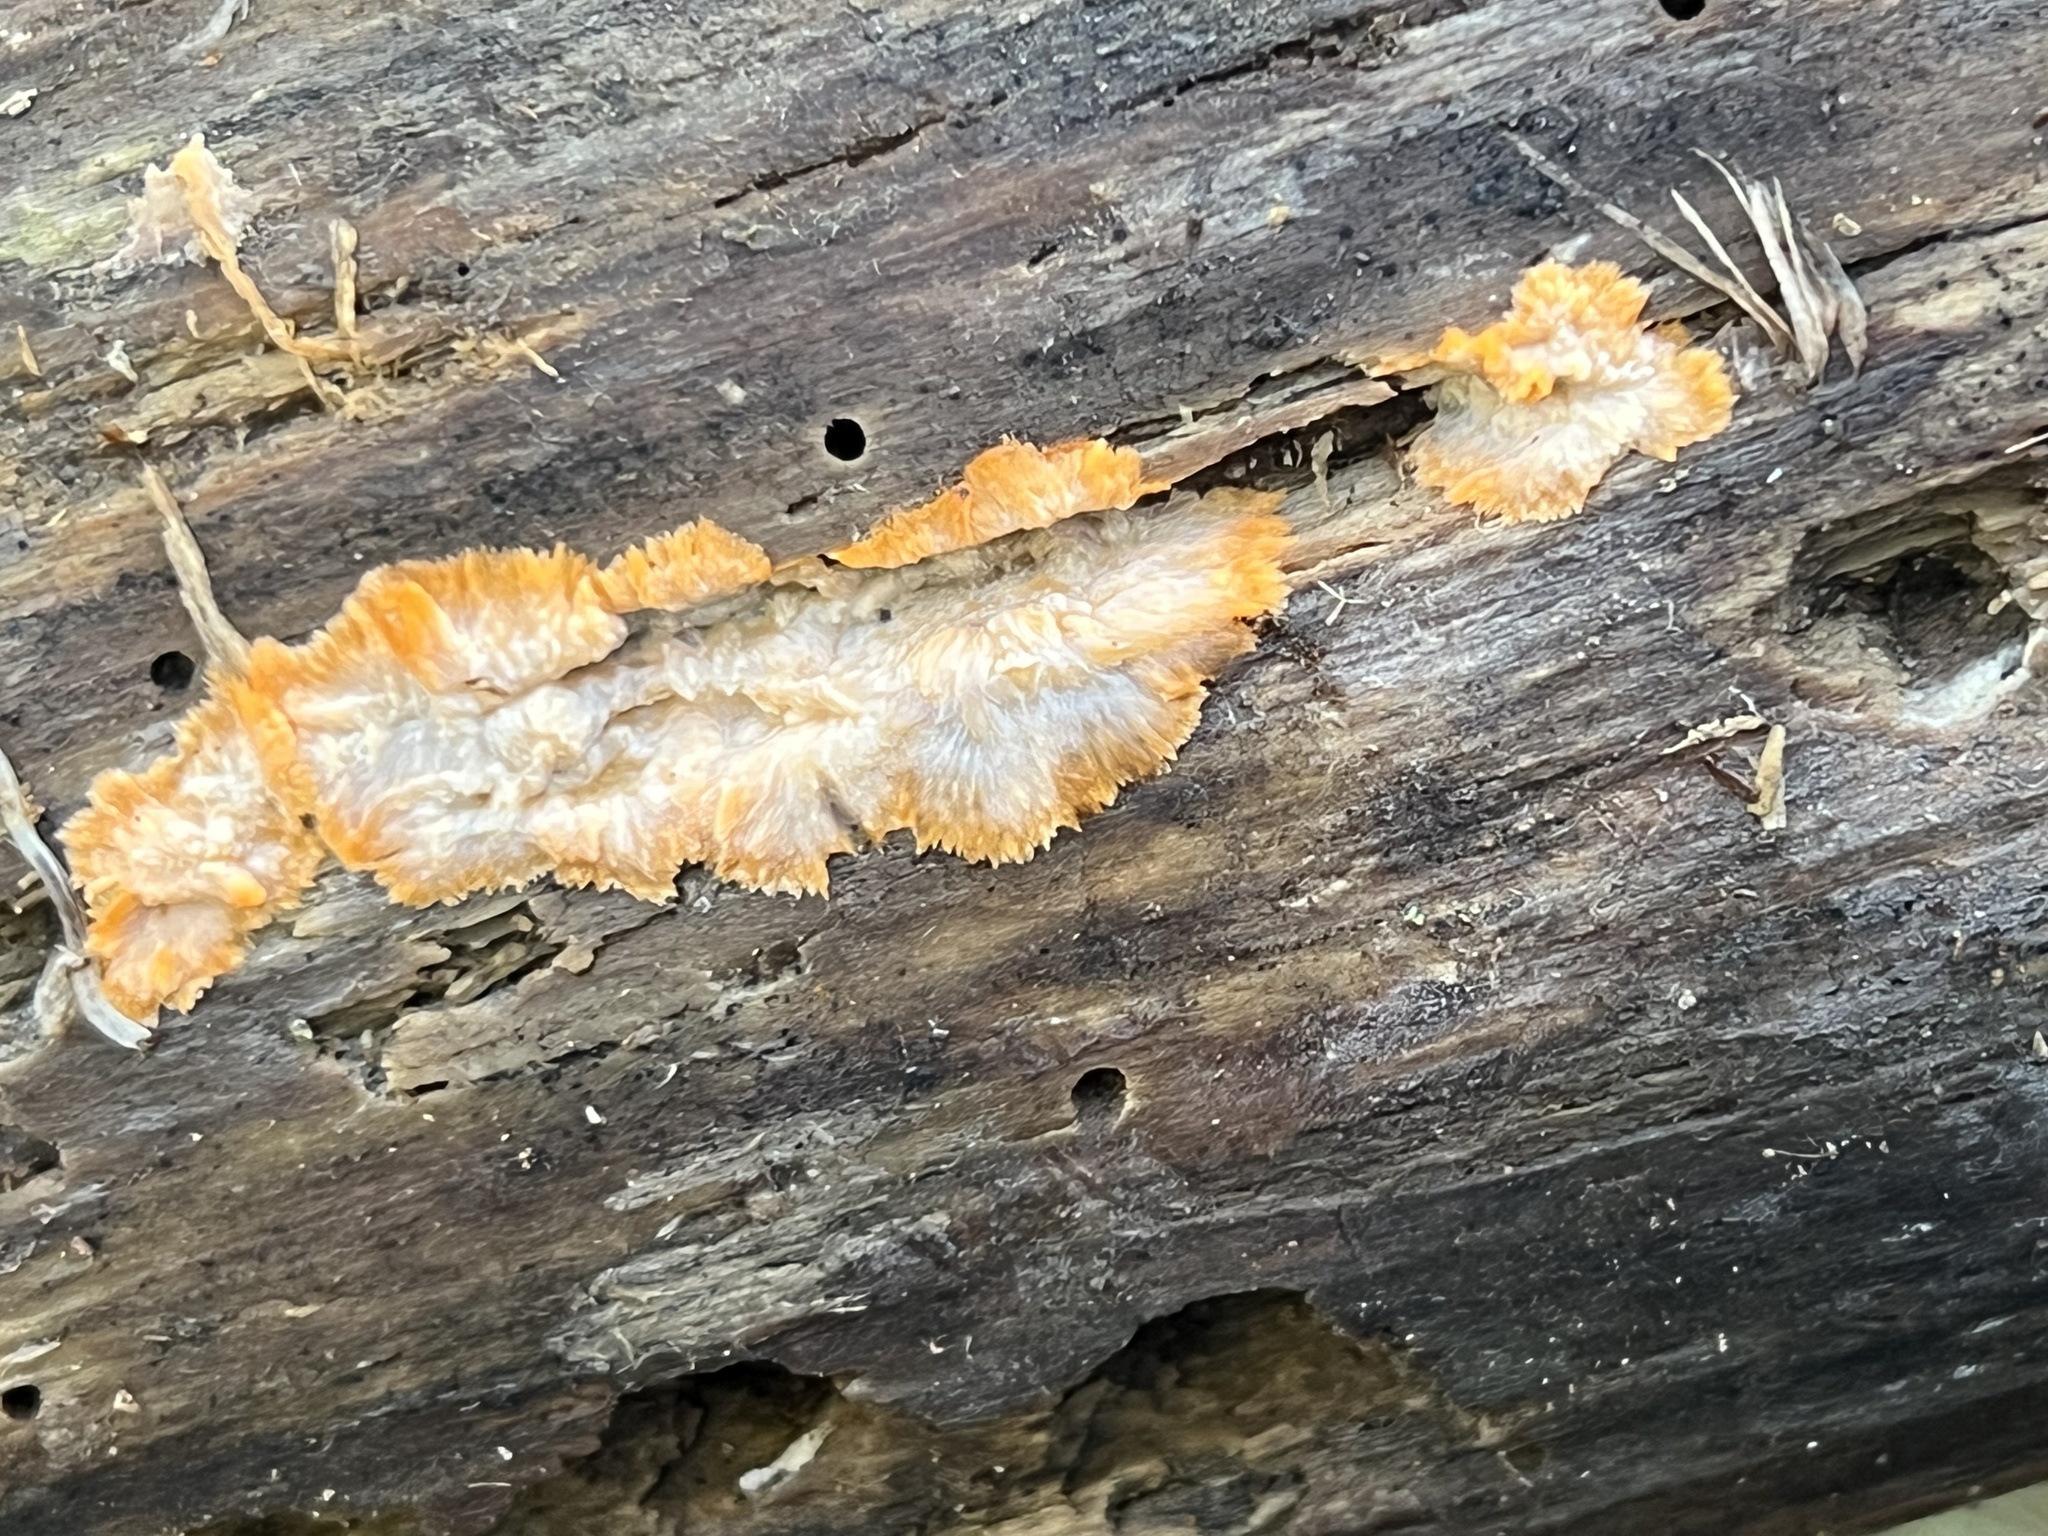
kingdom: Fungi
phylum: Basidiomycota
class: Agaricomycetes
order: Polyporales
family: Meruliaceae
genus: Phlebia
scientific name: Phlebia radiata
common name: Wrinkled crust
